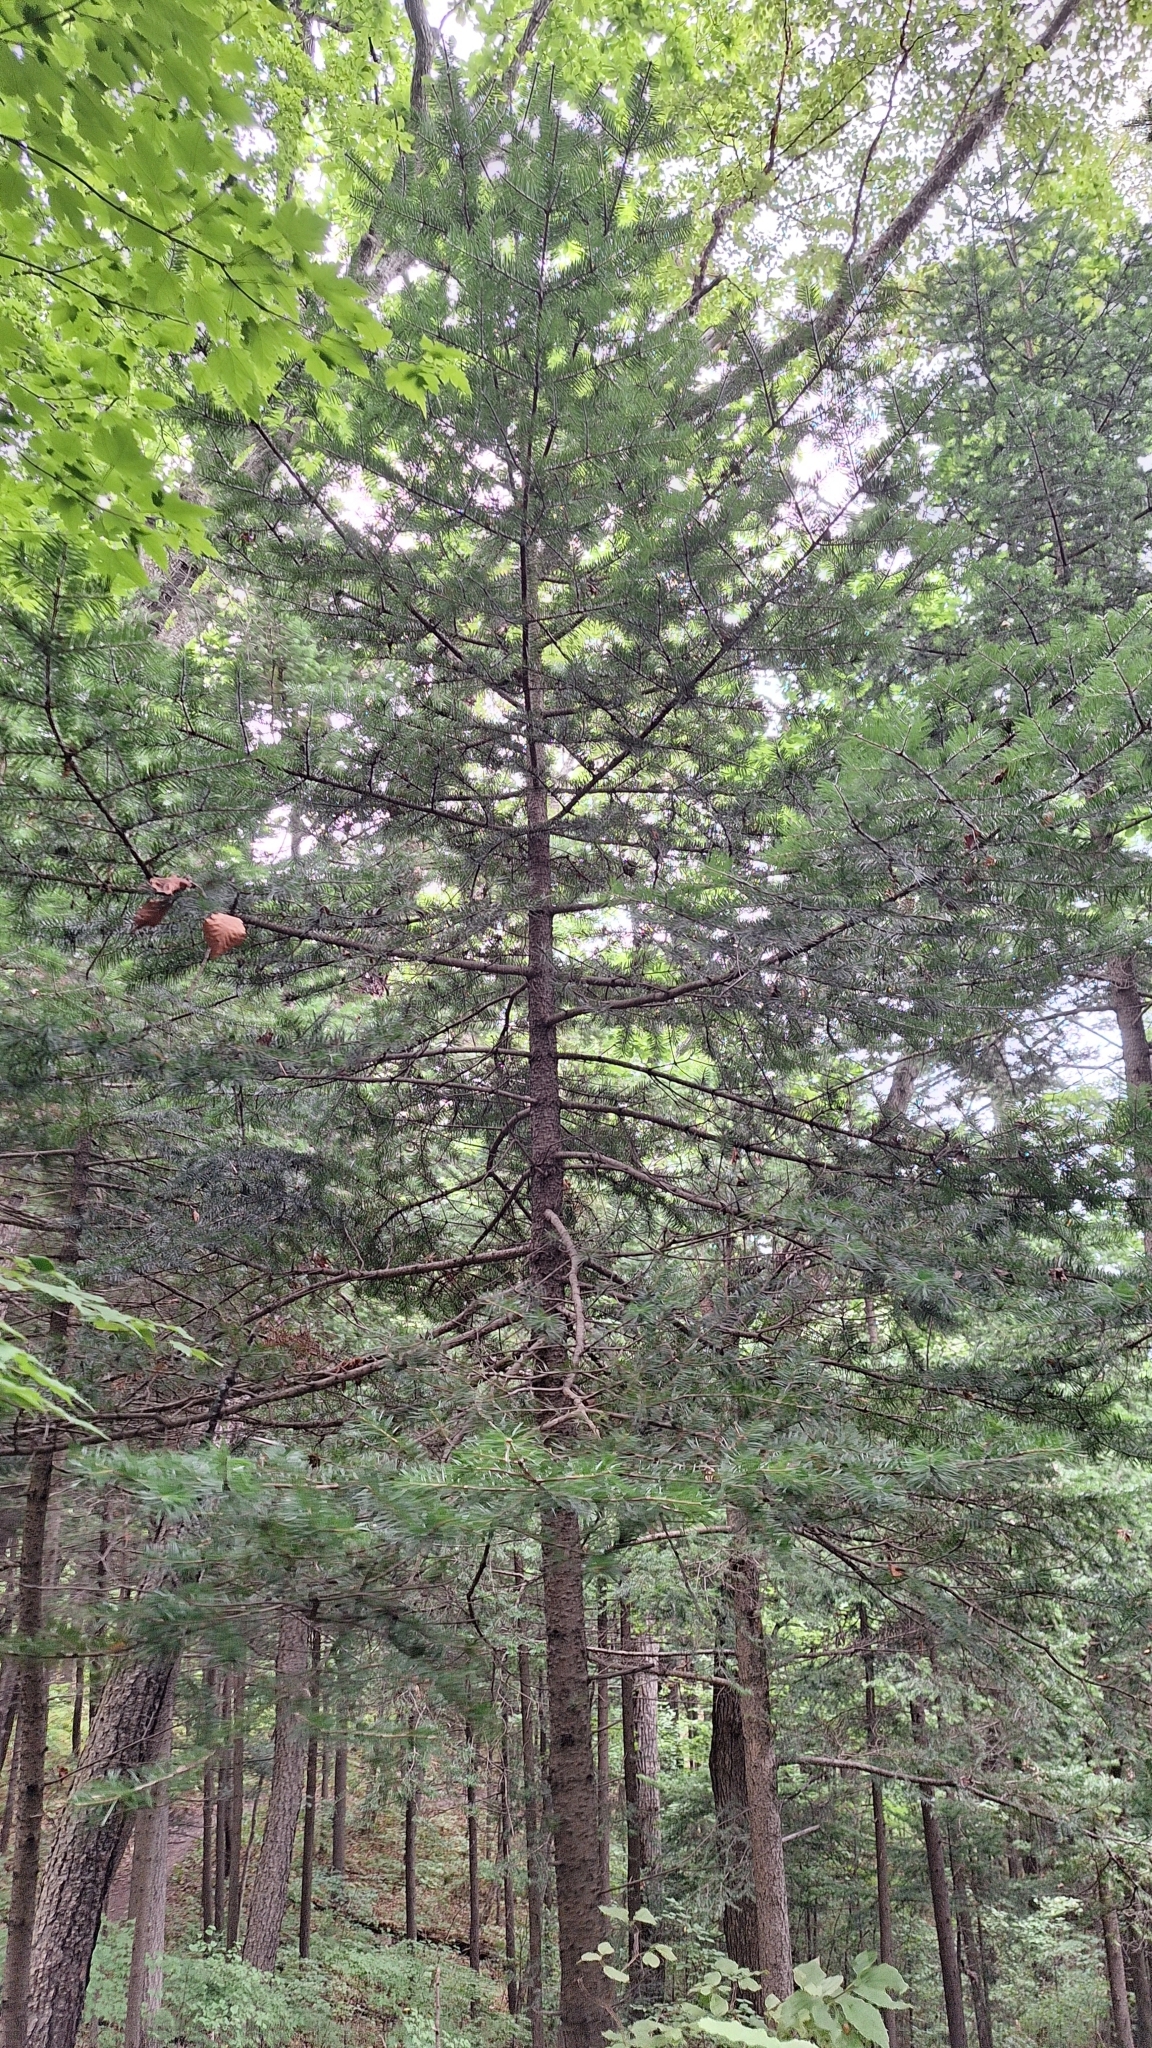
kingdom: Plantae
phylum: Tracheophyta
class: Pinopsida
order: Pinales
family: Pinaceae
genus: Abies
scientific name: Abies holophylla
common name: Manchurian fir
